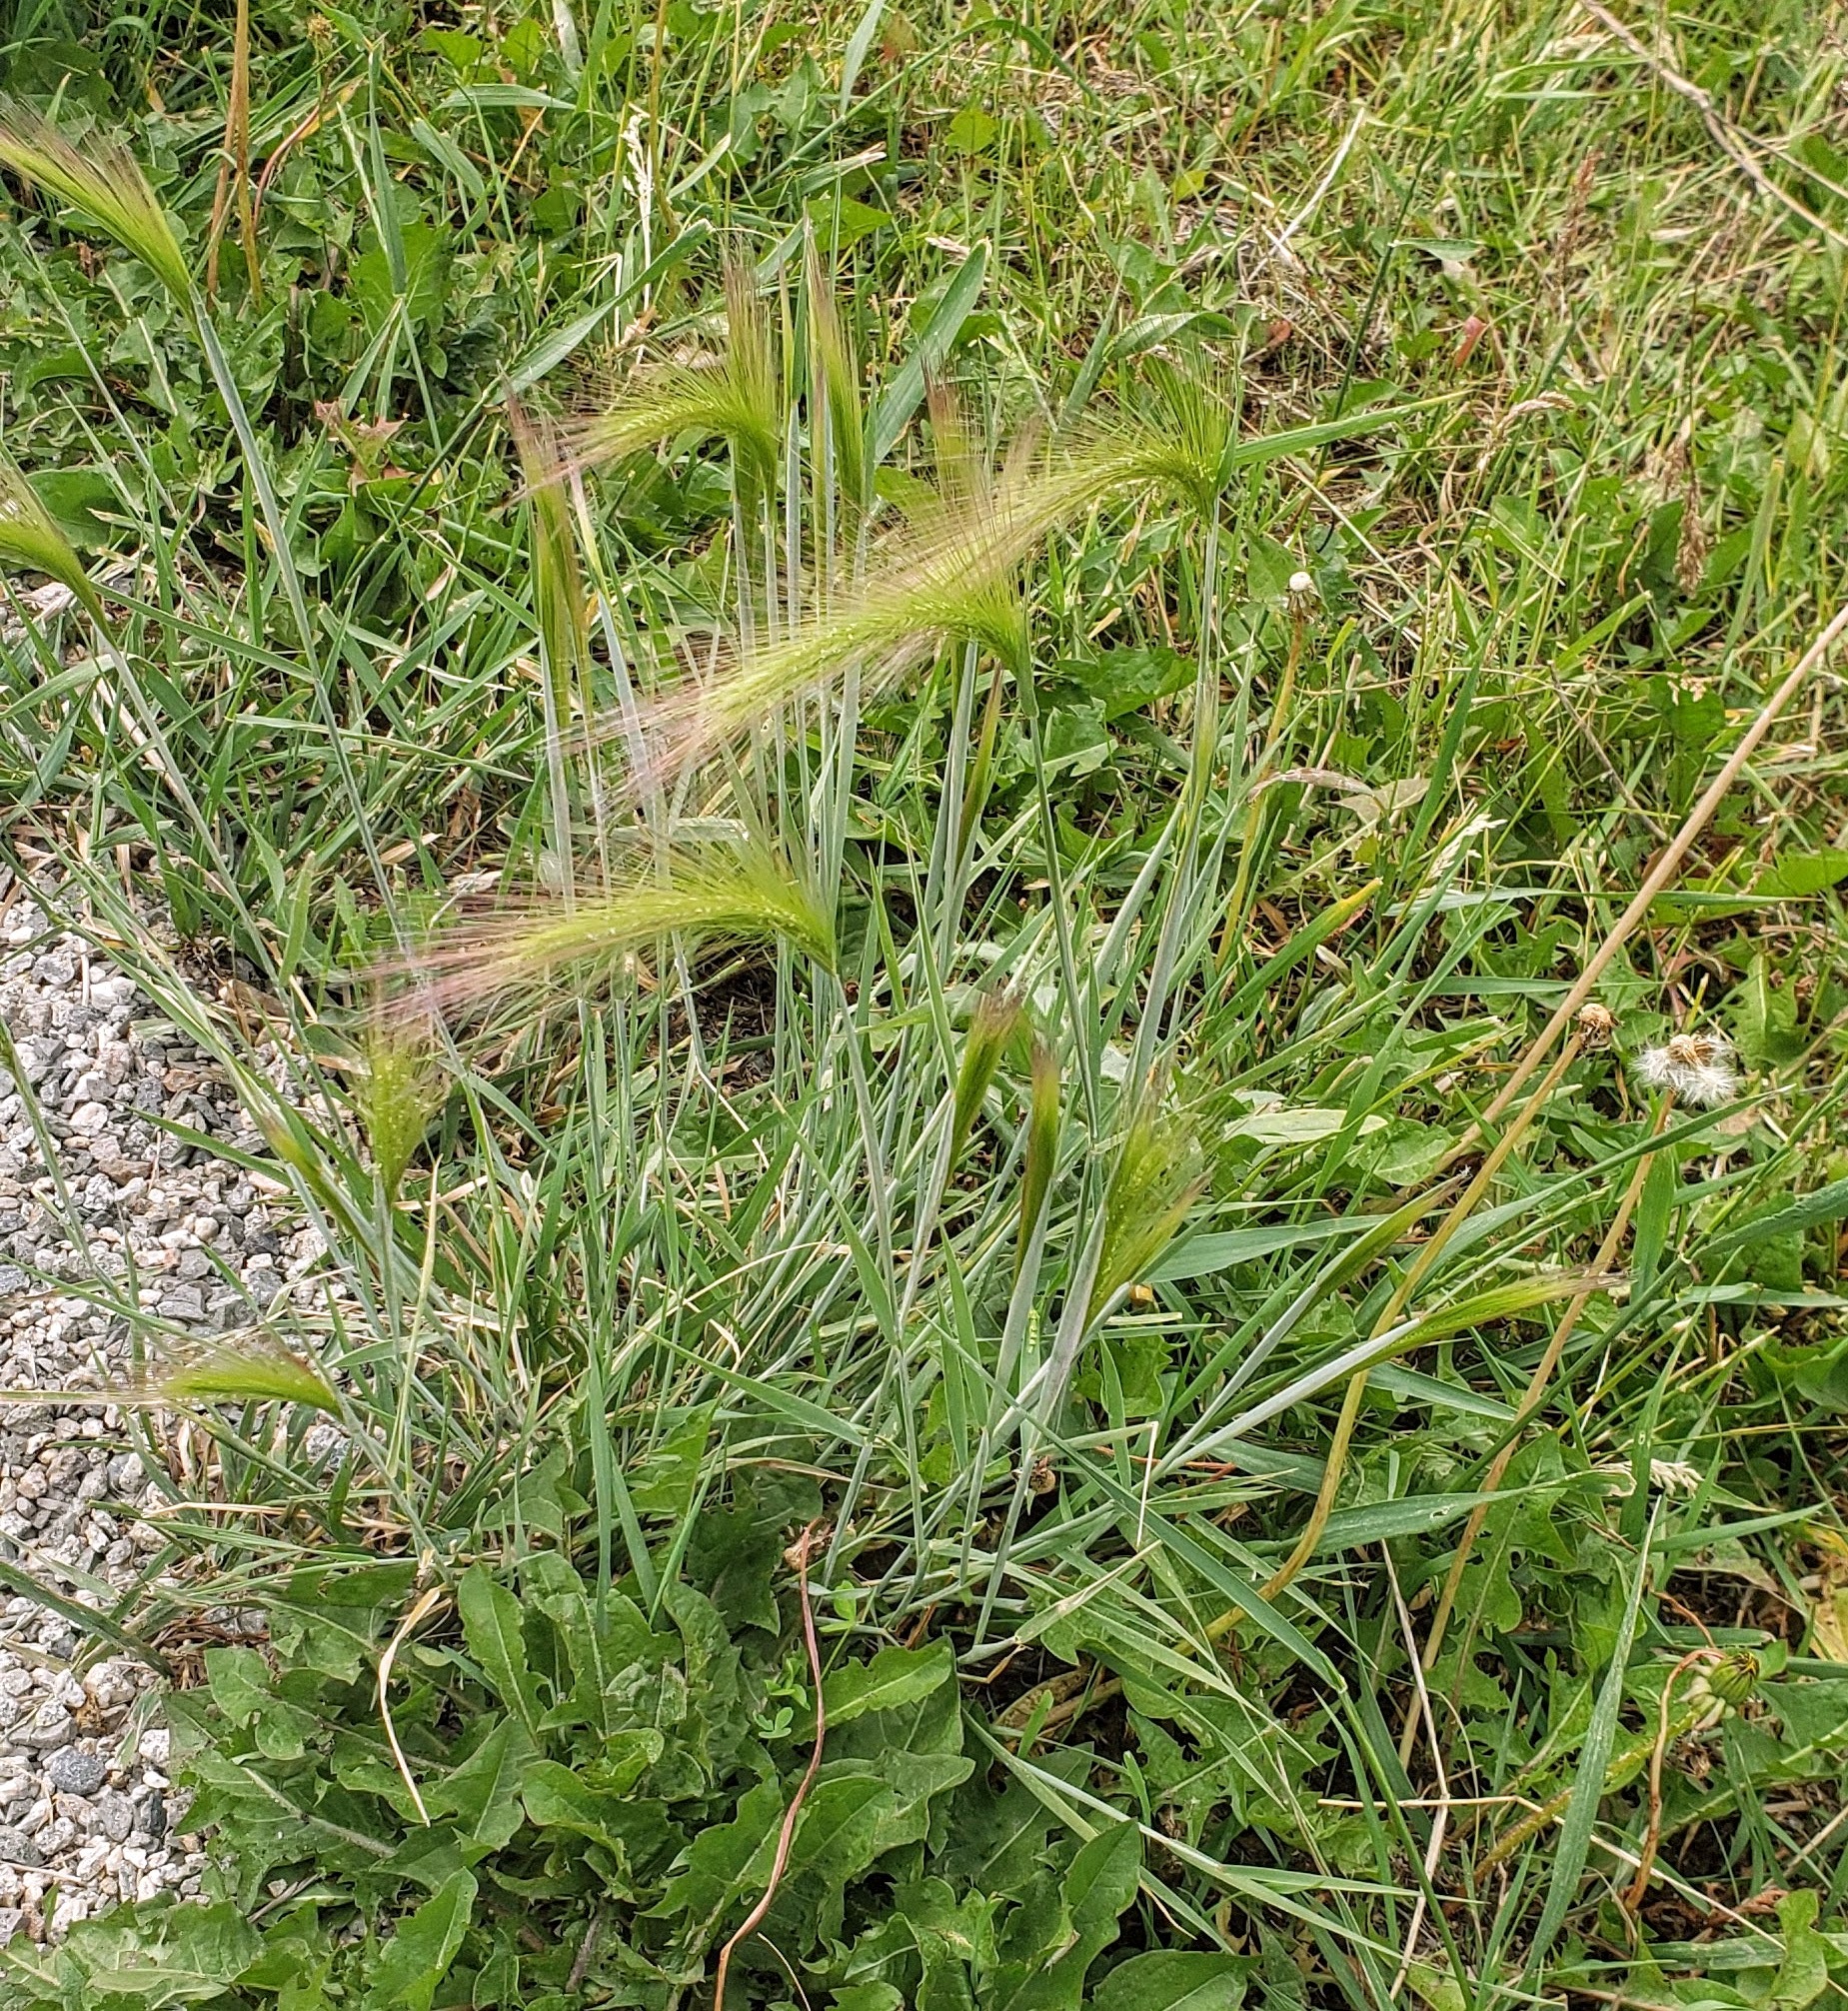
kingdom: Plantae
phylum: Tracheophyta
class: Liliopsida
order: Poales
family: Poaceae
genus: Hordeum
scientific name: Hordeum jubatum
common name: Foxtail barley
